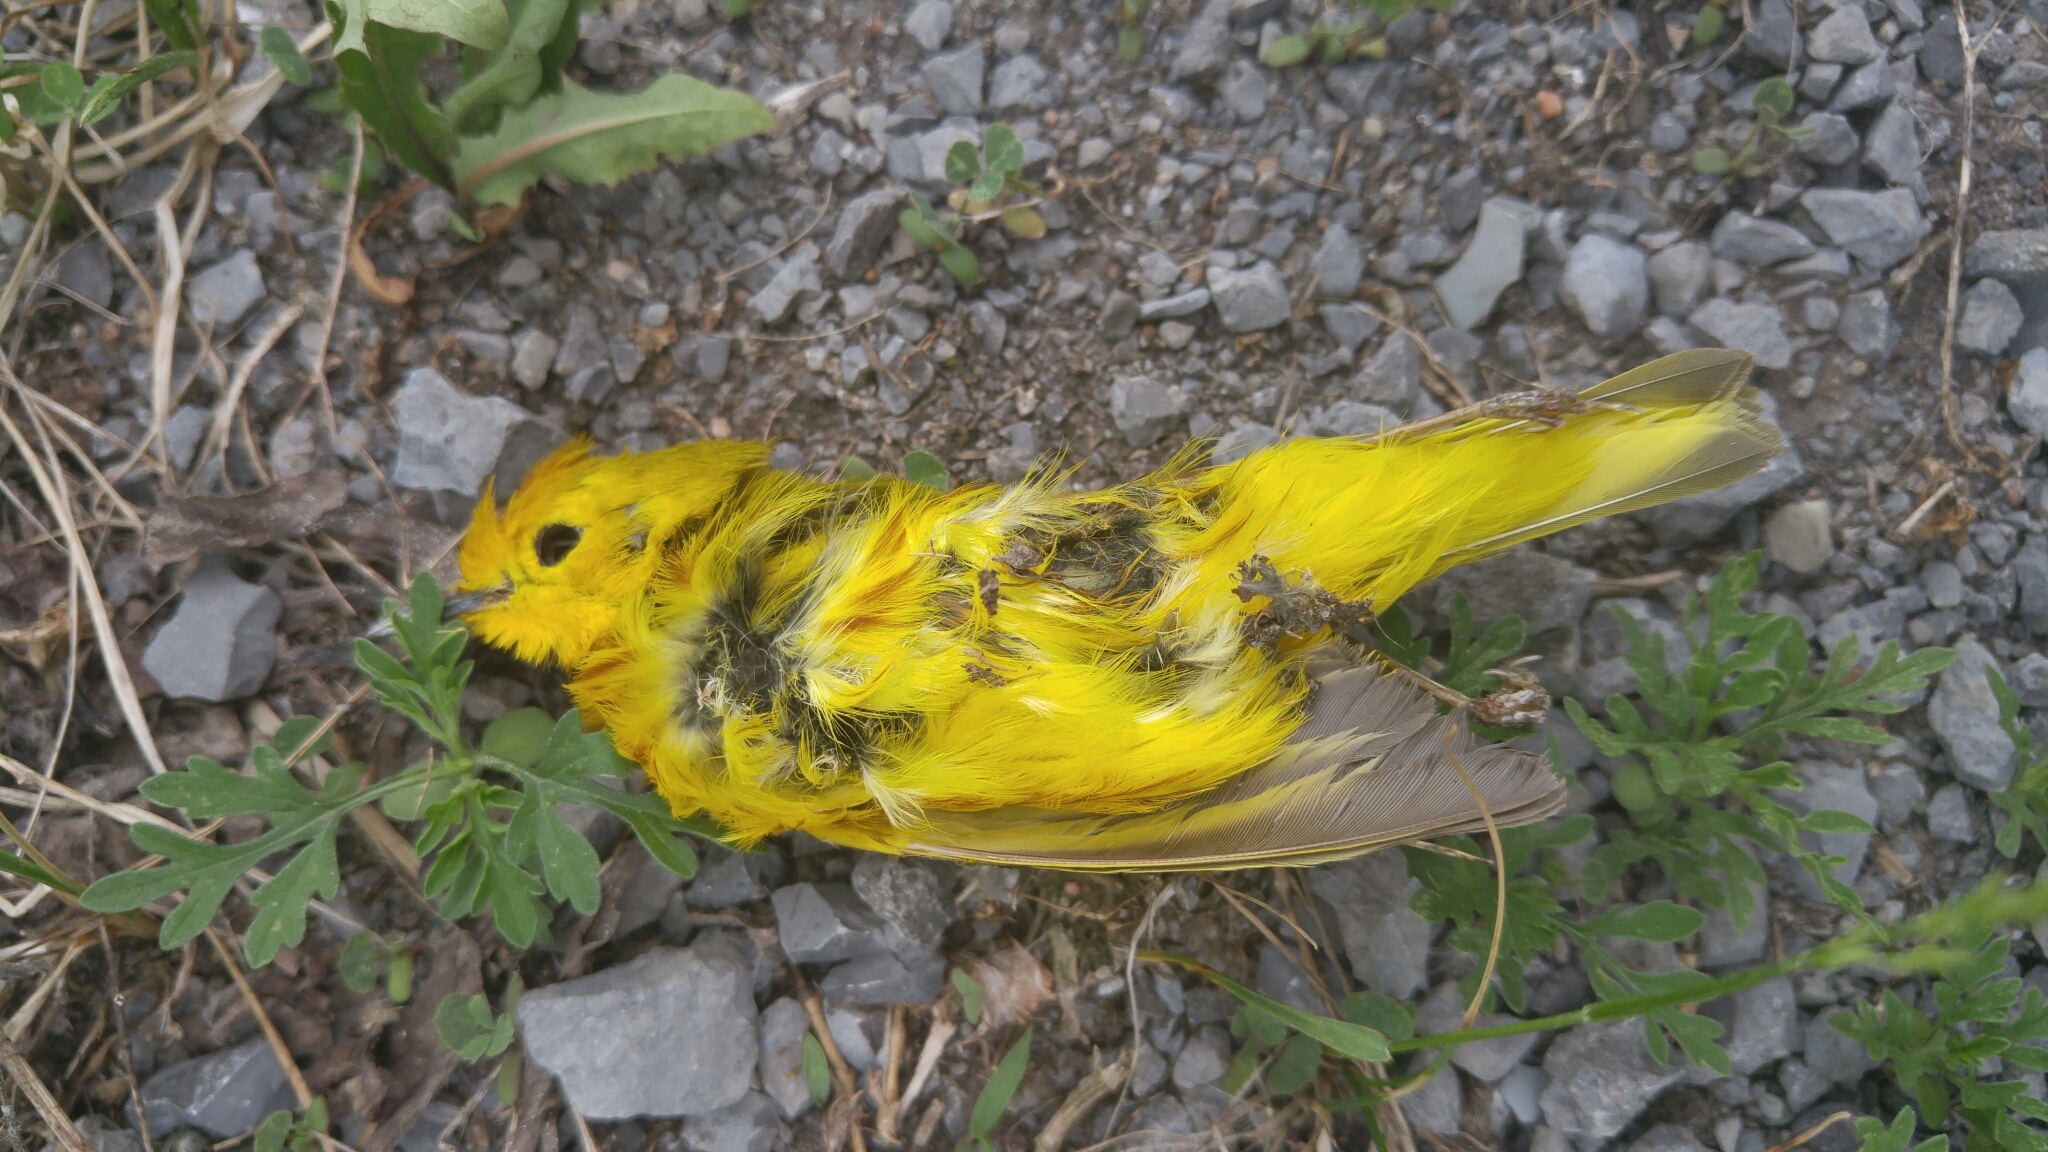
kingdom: Animalia
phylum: Chordata
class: Aves
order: Passeriformes
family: Parulidae
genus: Setophaga
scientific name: Setophaga petechia
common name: Yellow warbler
